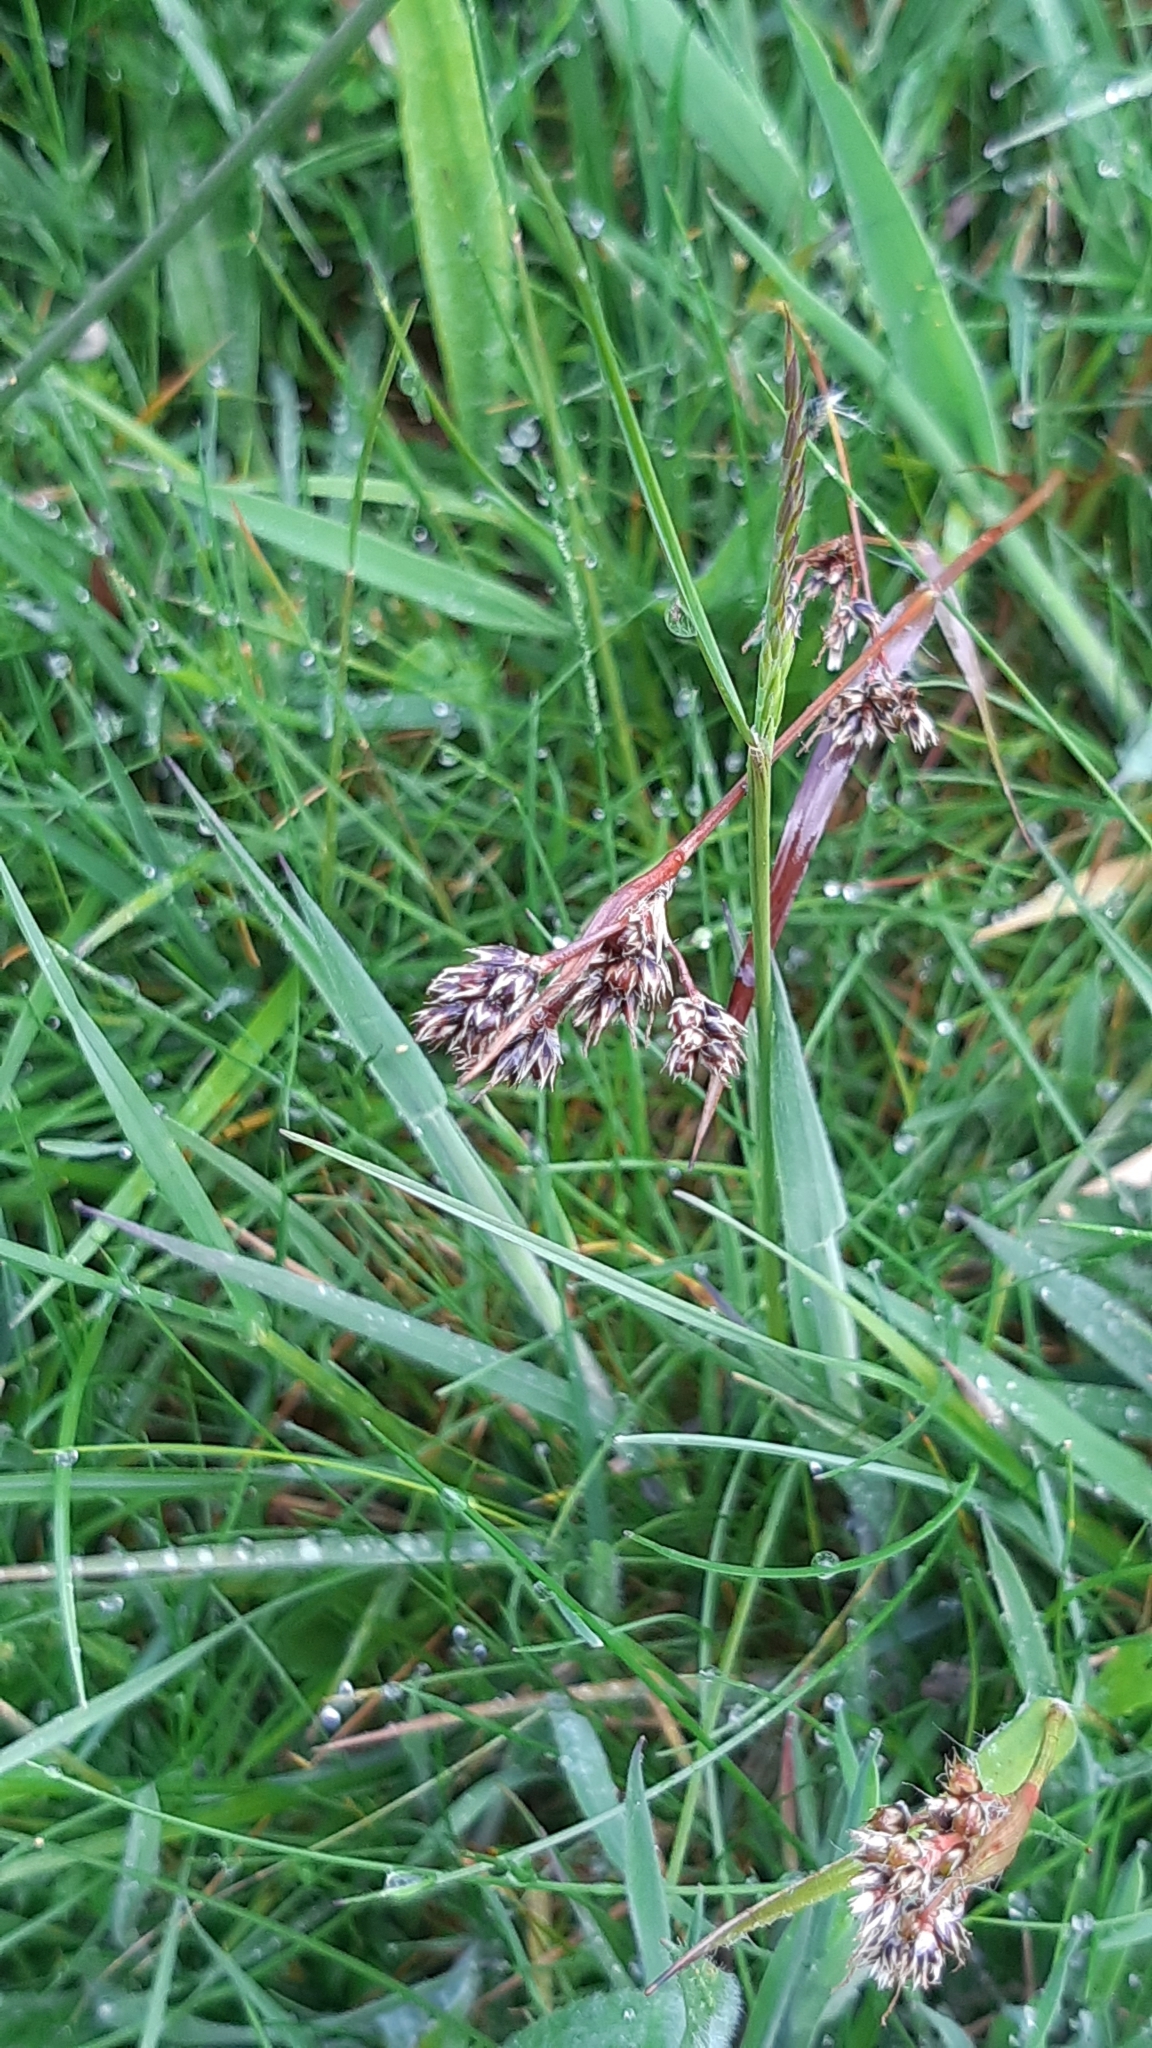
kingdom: Plantae
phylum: Tracheophyta
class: Liliopsida
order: Poales
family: Juncaceae
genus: Luzula
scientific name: Luzula campestris
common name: Field wood-rush
